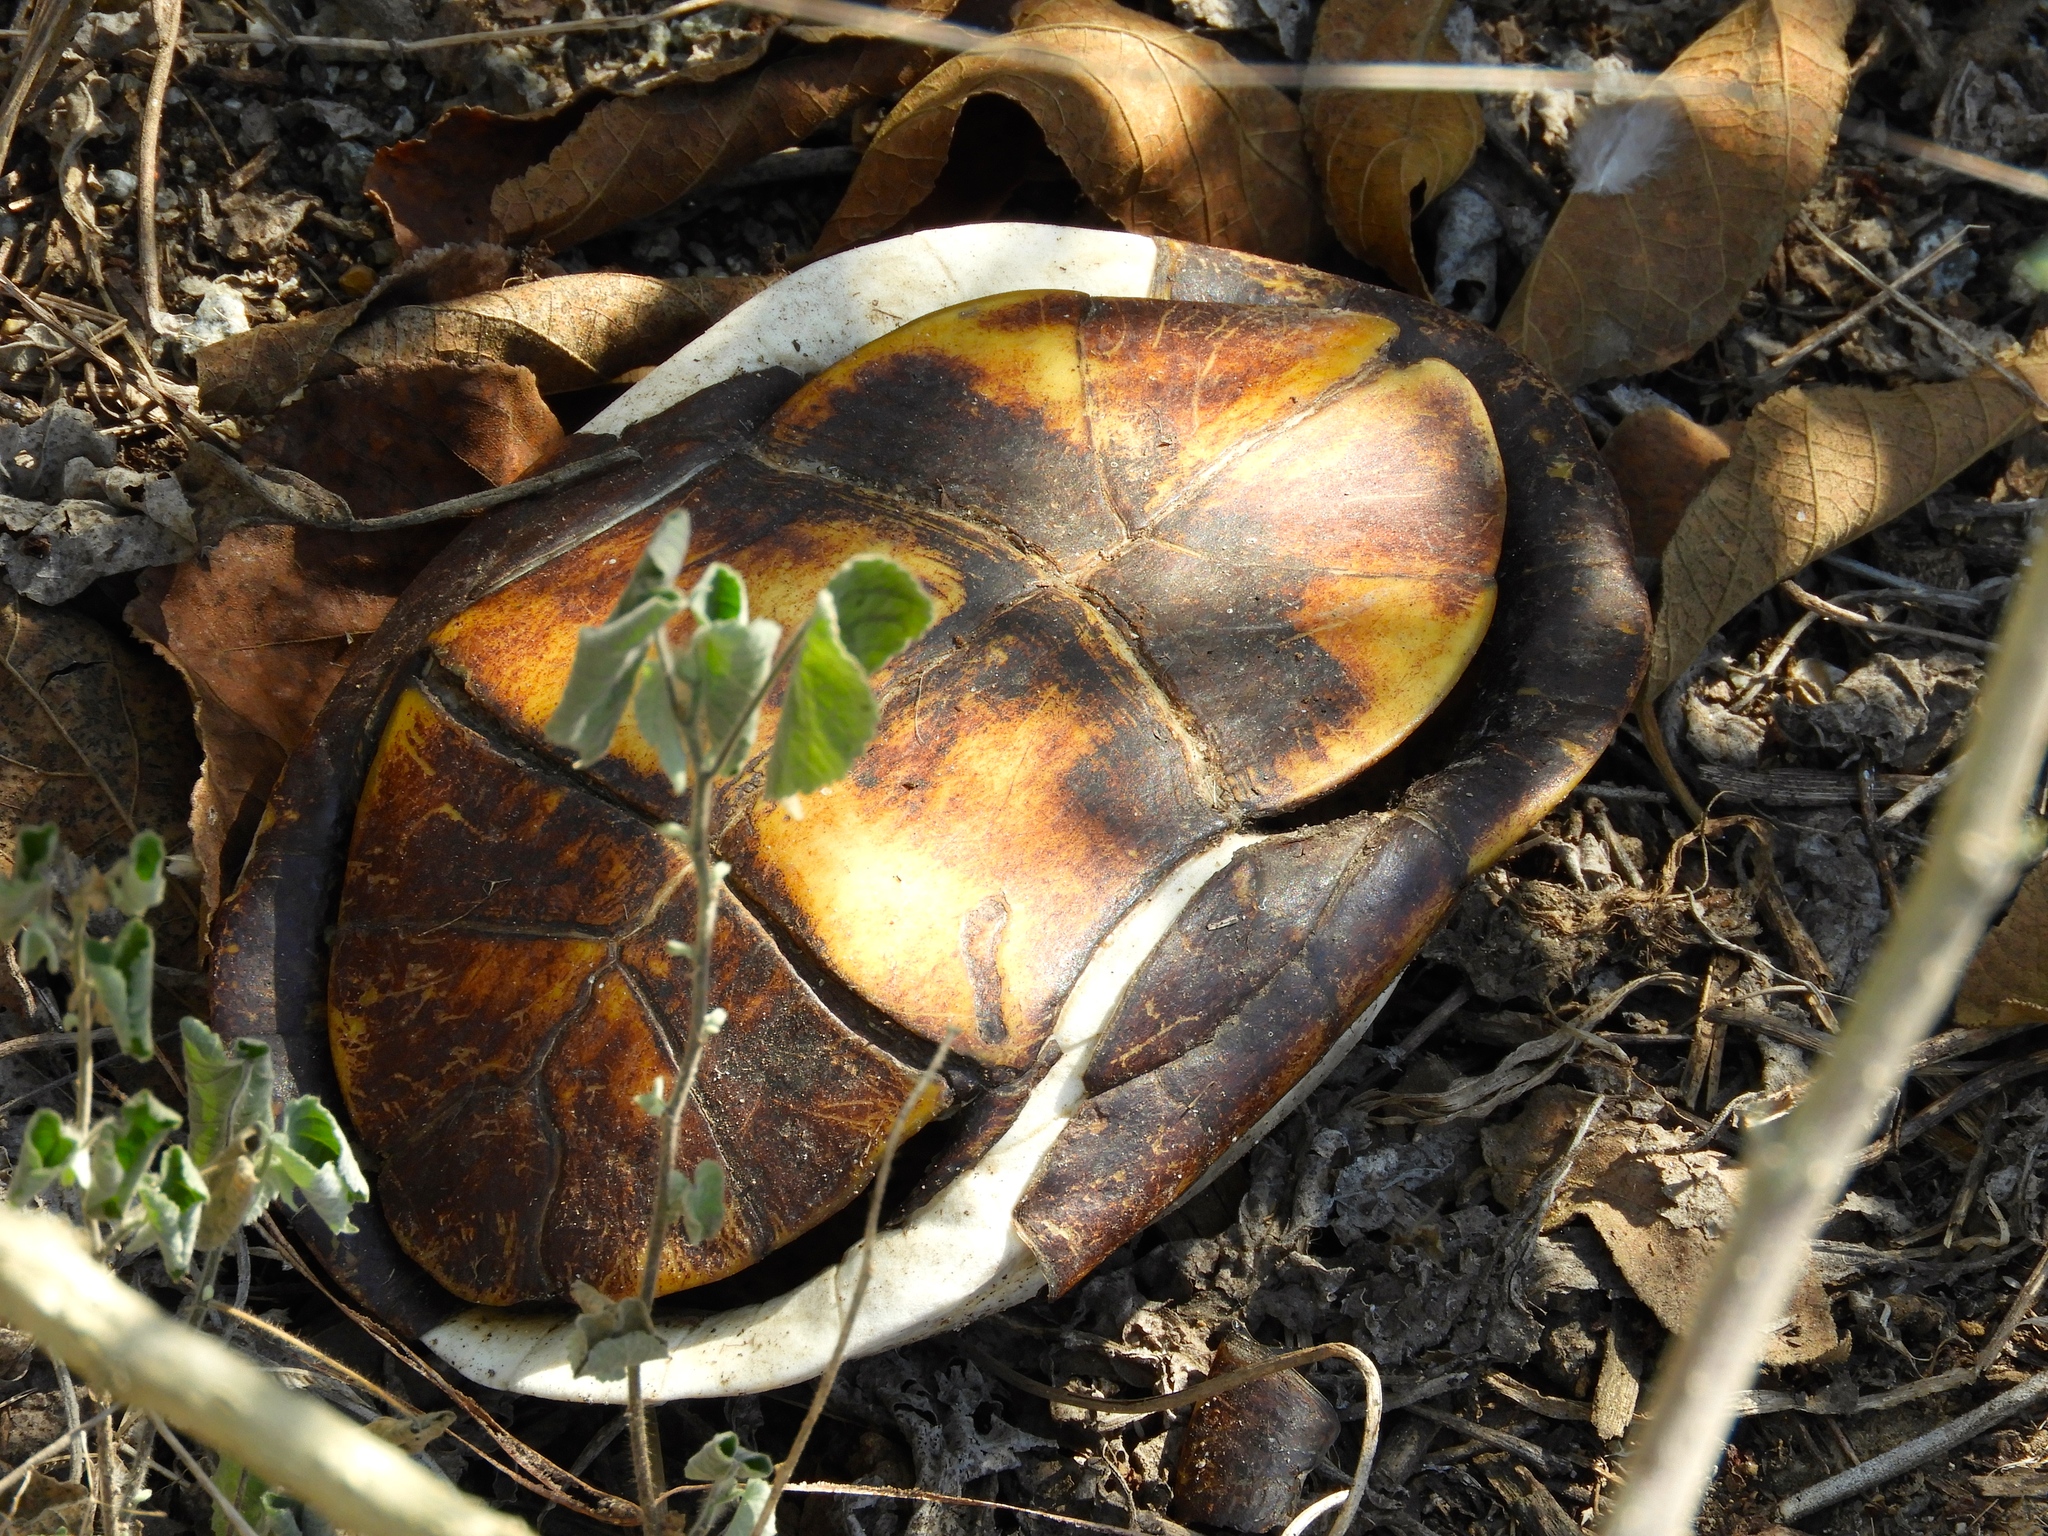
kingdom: Animalia
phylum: Chordata
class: Testudines
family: Kinosternidae
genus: Kinosternon
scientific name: Kinosternon integrum
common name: Mexican mud turtle
